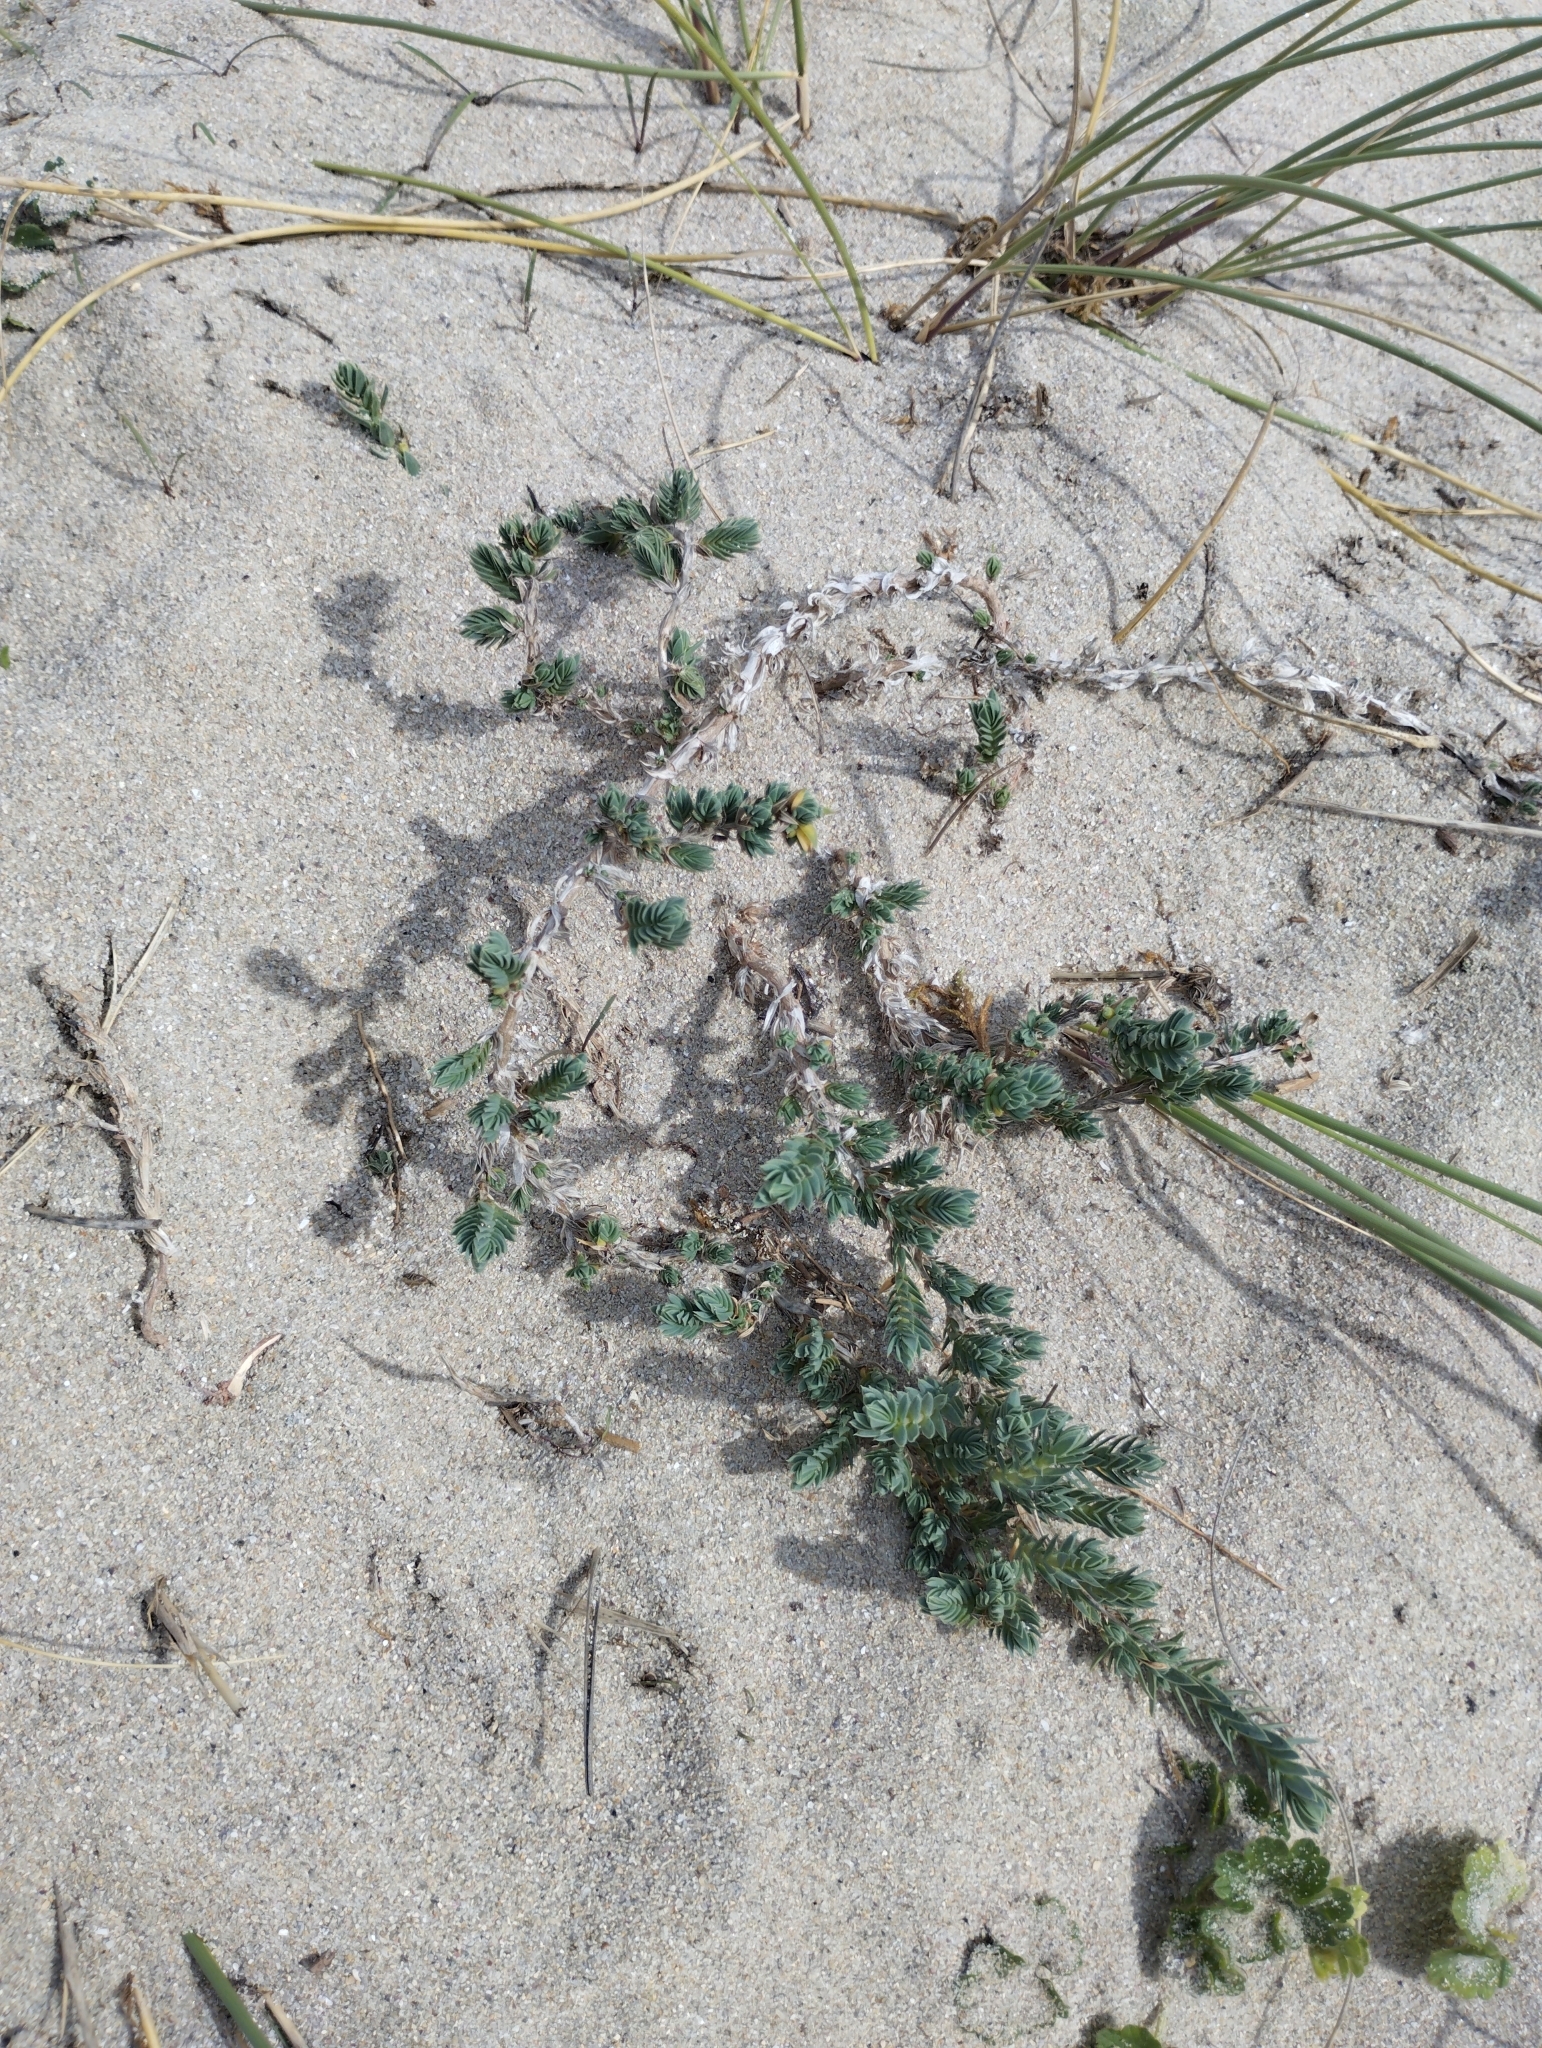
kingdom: Plantae
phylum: Tracheophyta
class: Magnoliopsida
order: Gentianales
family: Rubiaceae
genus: Crucianella
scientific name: Crucianella maritima
